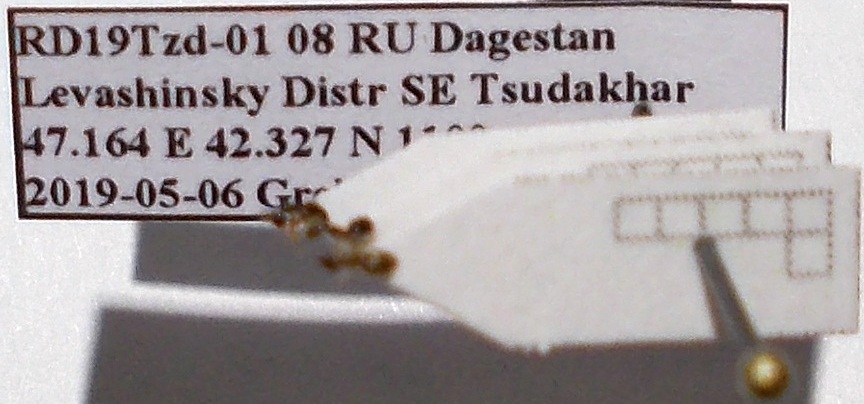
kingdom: Animalia
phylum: Arthropoda
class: Insecta
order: Hymenoptera
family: Formicidae
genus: Plagiolepis
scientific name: Plagiolepis pallescens
